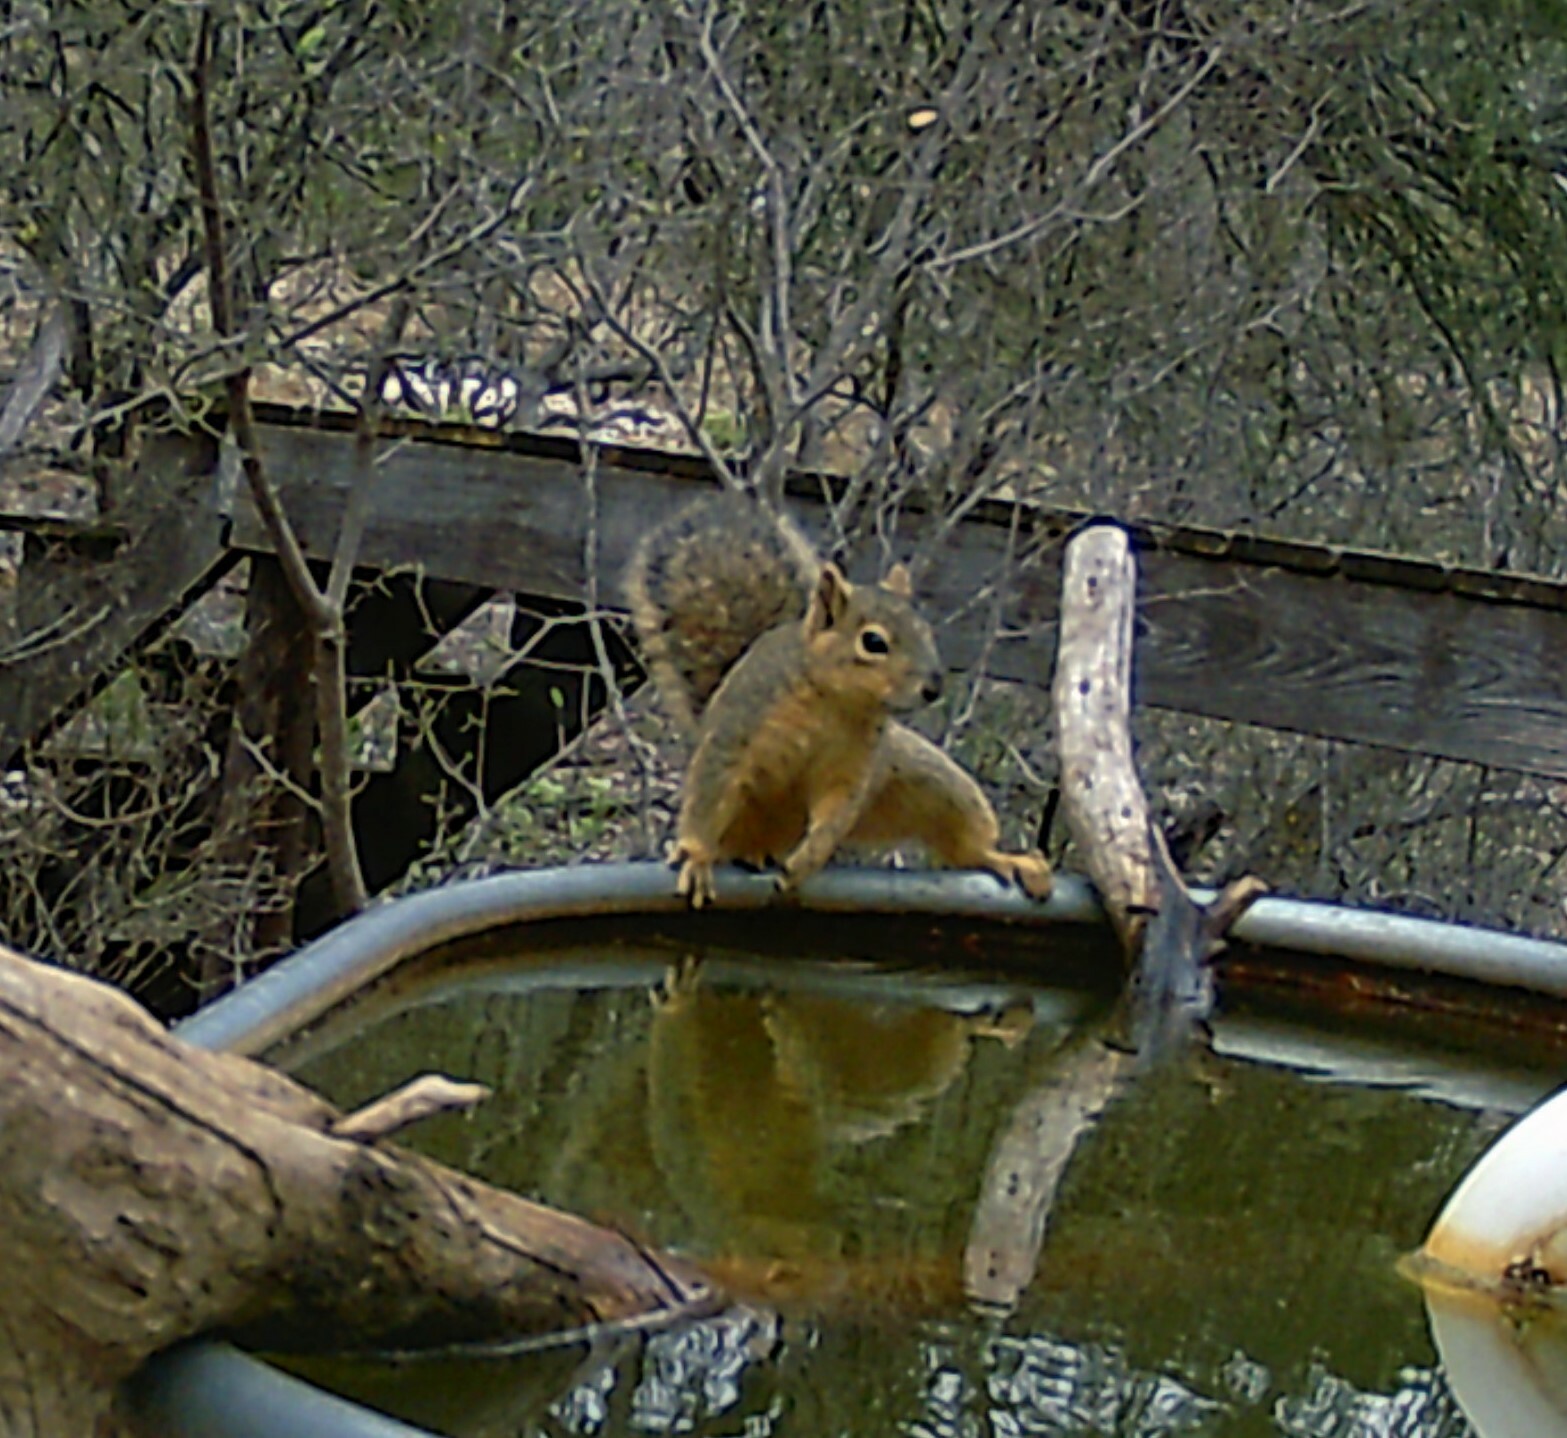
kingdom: Animalia
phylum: Chordata
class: Mammalia
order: Rodentia
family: Sciuridae
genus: Sciurus
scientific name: Sciurus niger
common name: Fox squirrel
